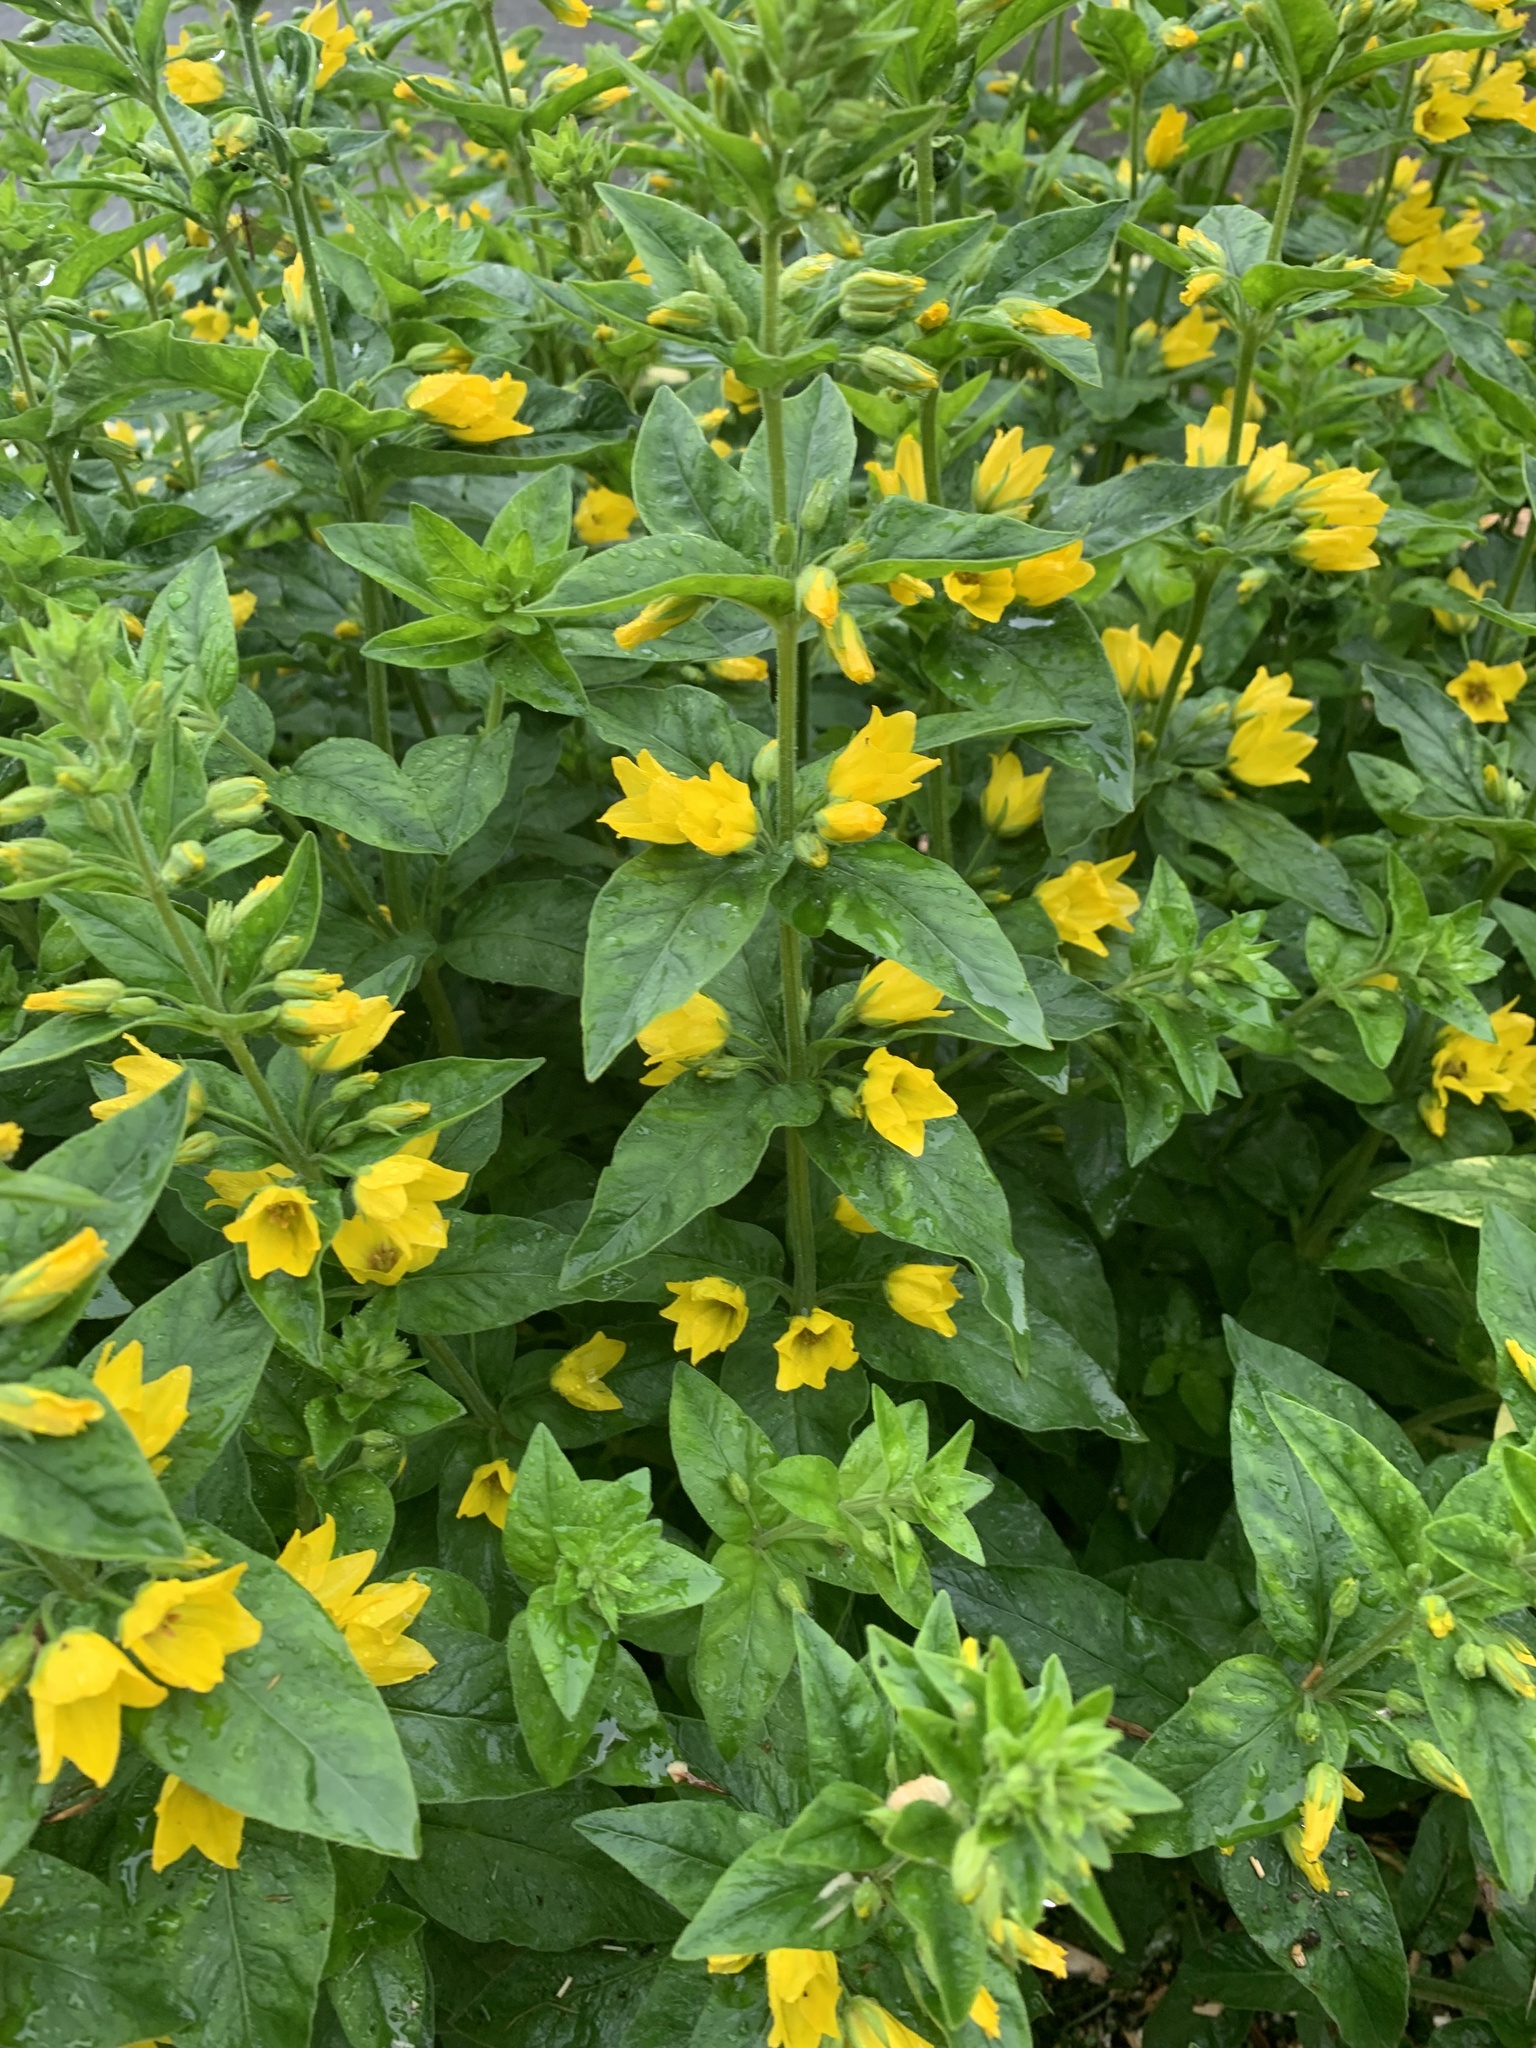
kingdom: Plantae
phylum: Tracheophyta
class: Magnoliopsida
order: Ericales
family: Primulaceae
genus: Lysimachia
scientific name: Lysimachia punctata
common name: Dotted loosestrife
